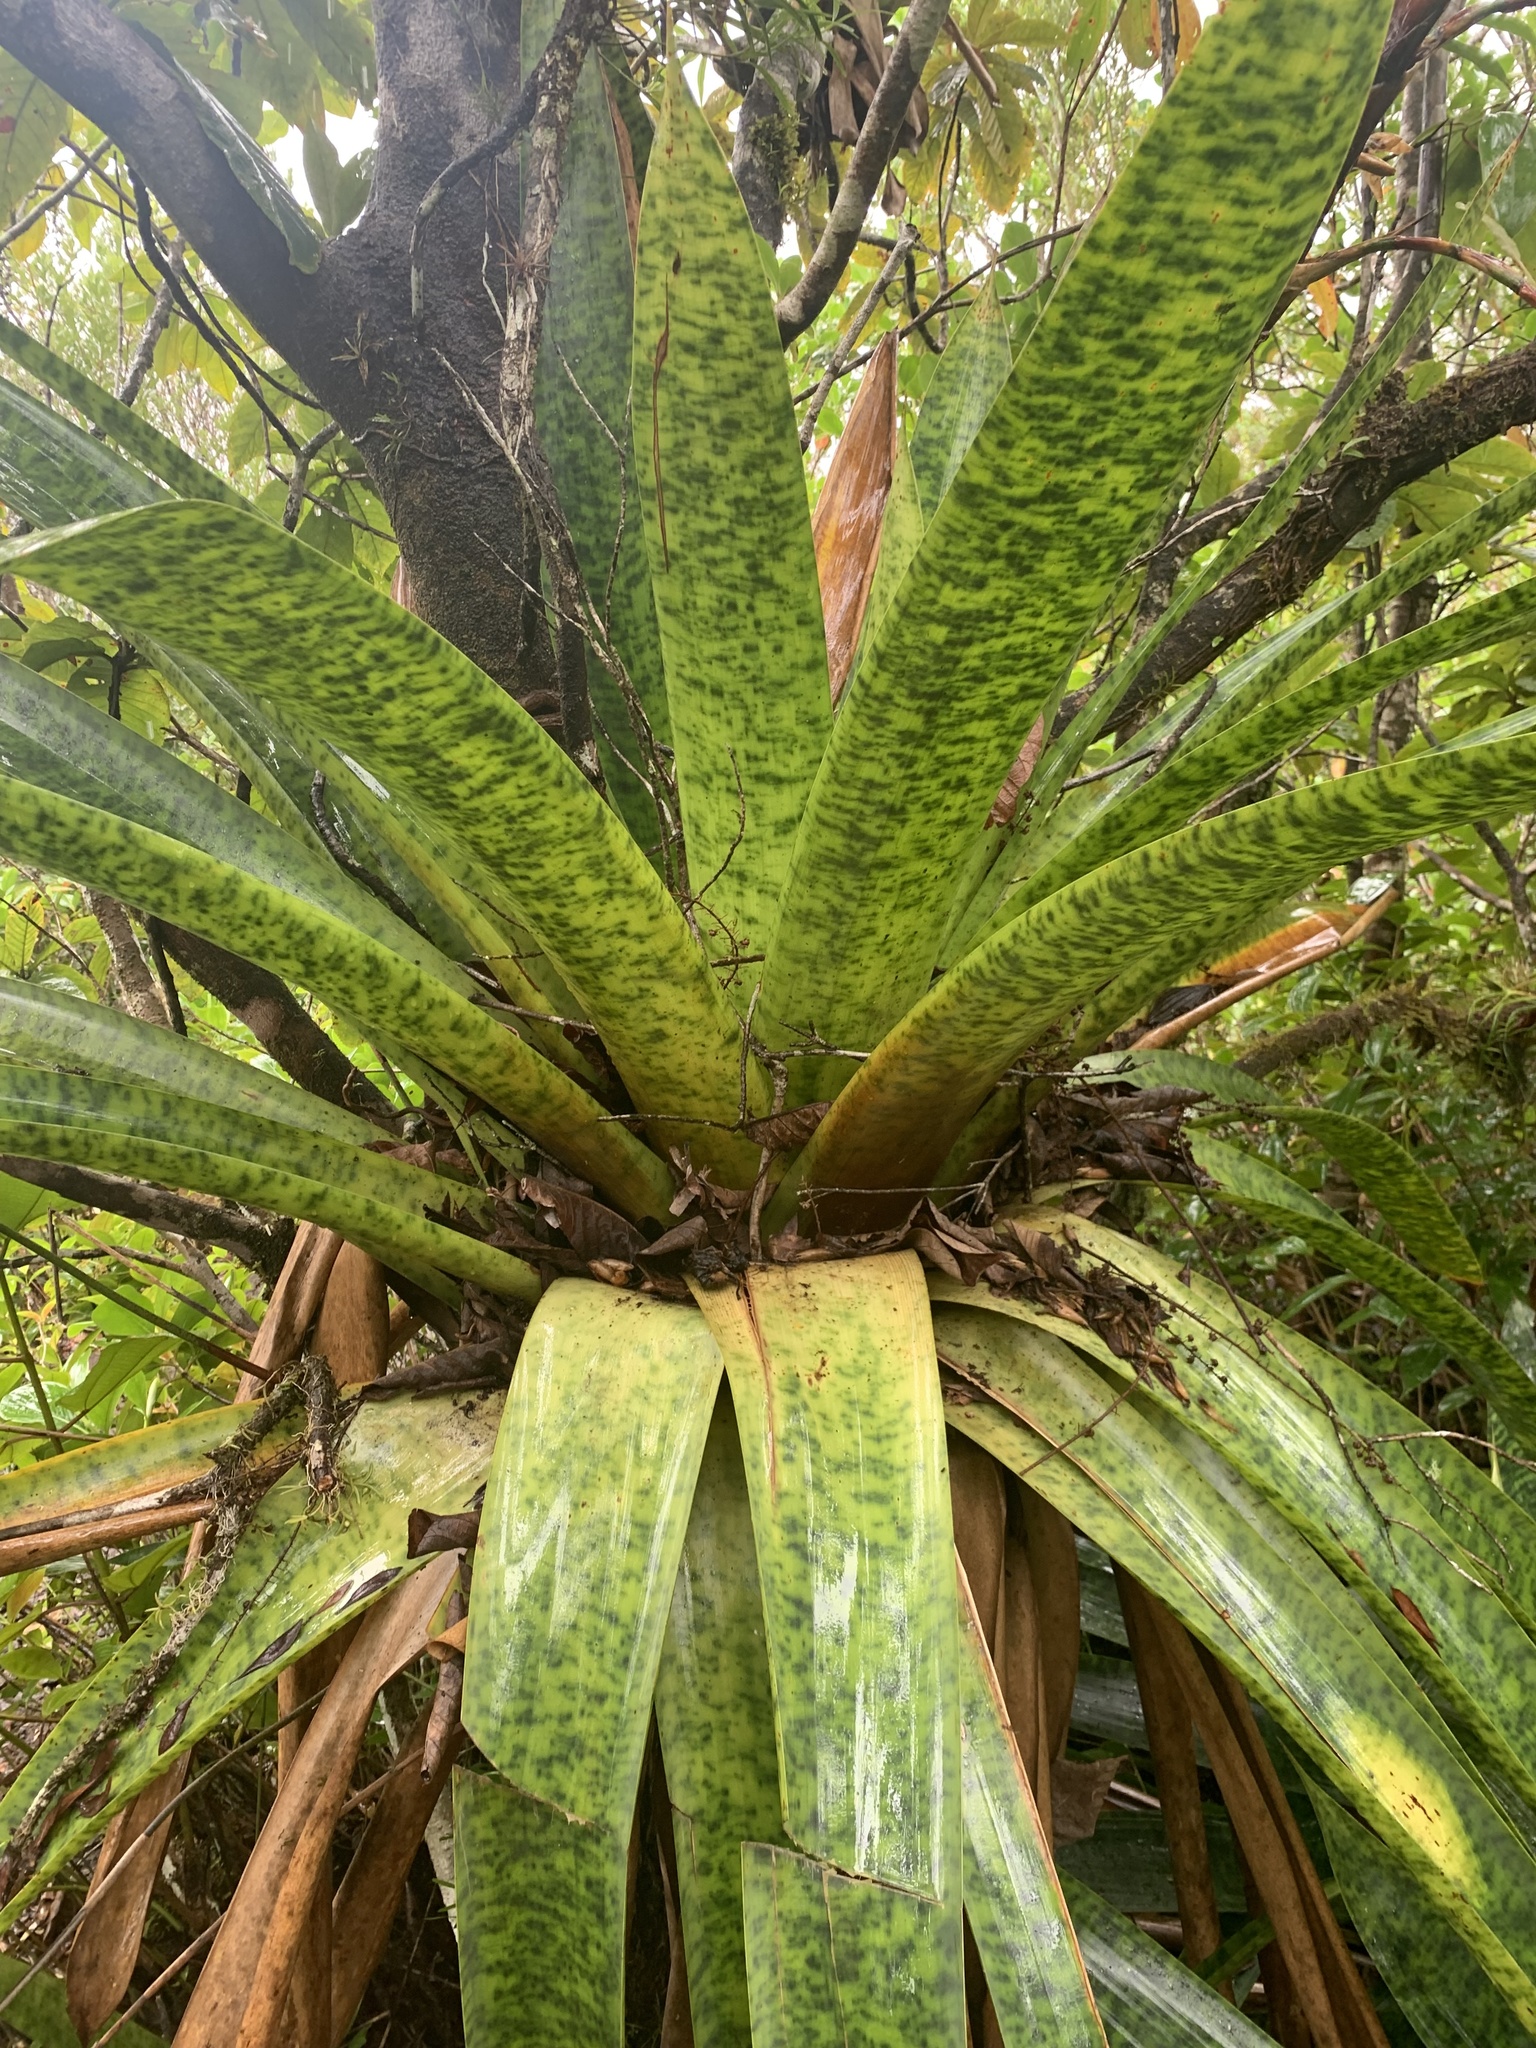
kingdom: Plantae
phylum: Tracheophyta
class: Liliopsida
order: Poales
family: Bromeliaceae
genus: Werauhia
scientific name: Werauhia kupperiana
